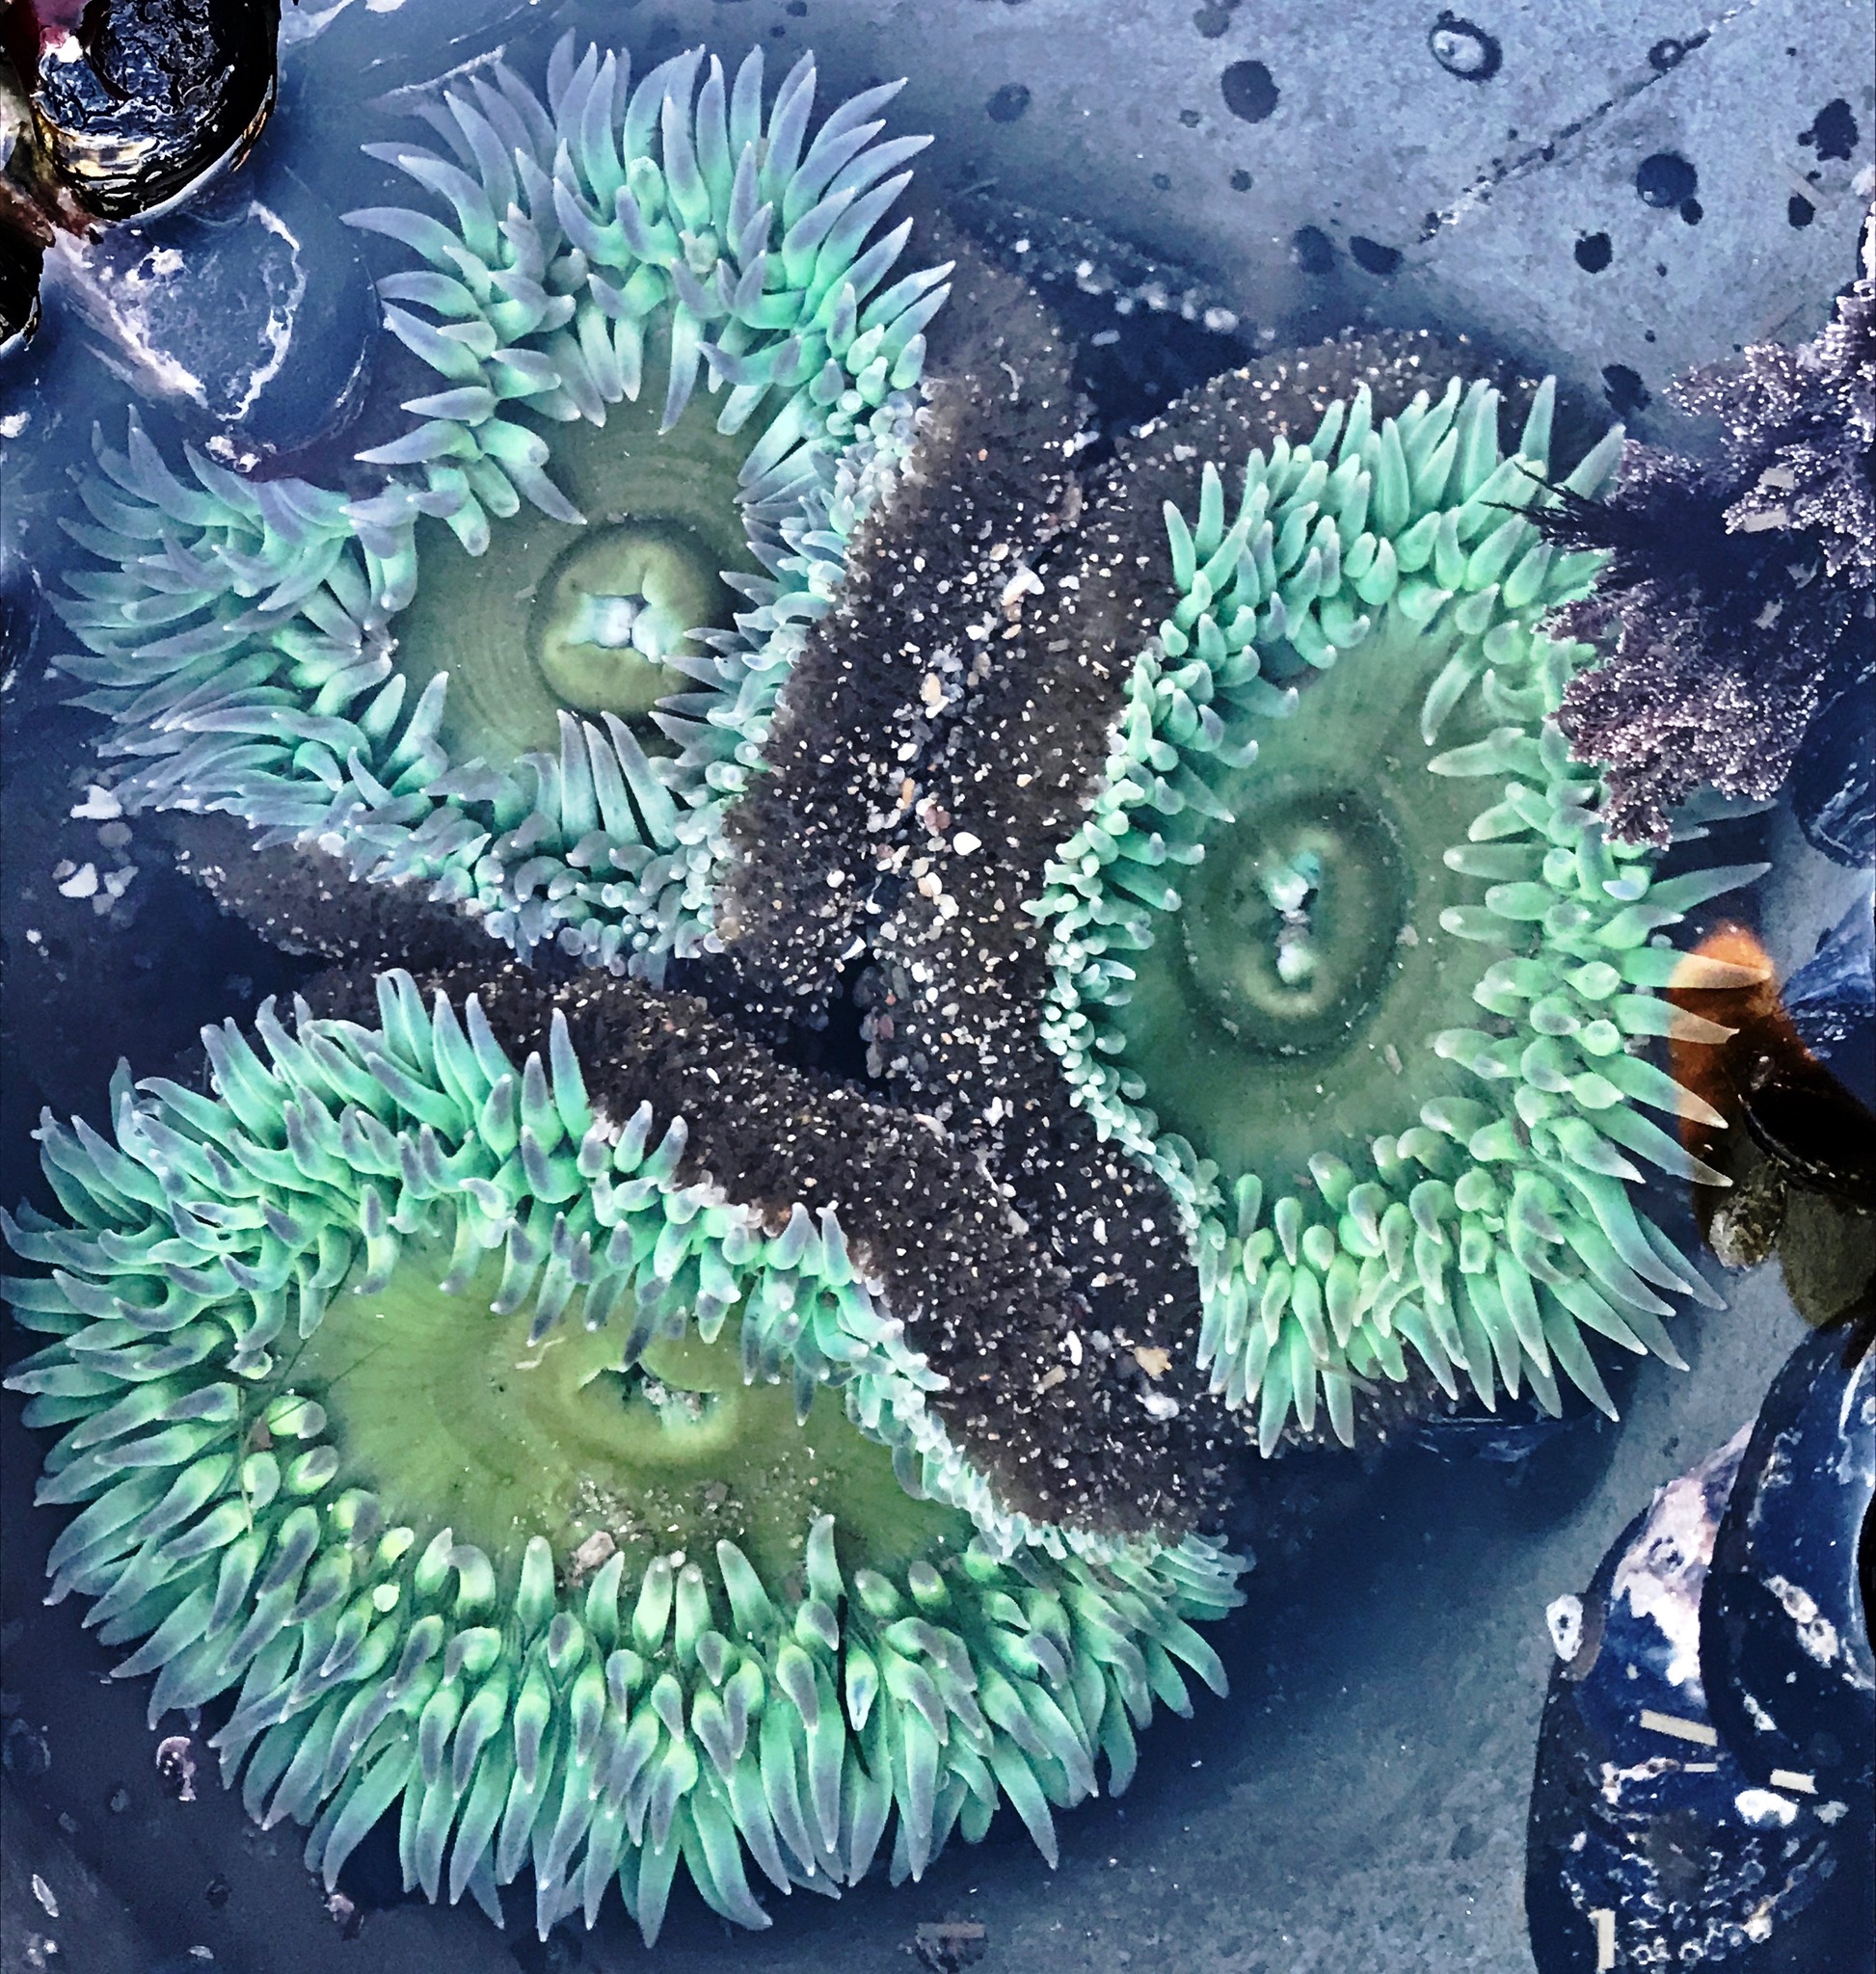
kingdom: Animalia
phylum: Cnidaria
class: Anthozoa
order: Actiniaria
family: Actiniidae
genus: Anthopleura
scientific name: Anthopleura xanthogrammica
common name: Giant green anemone
